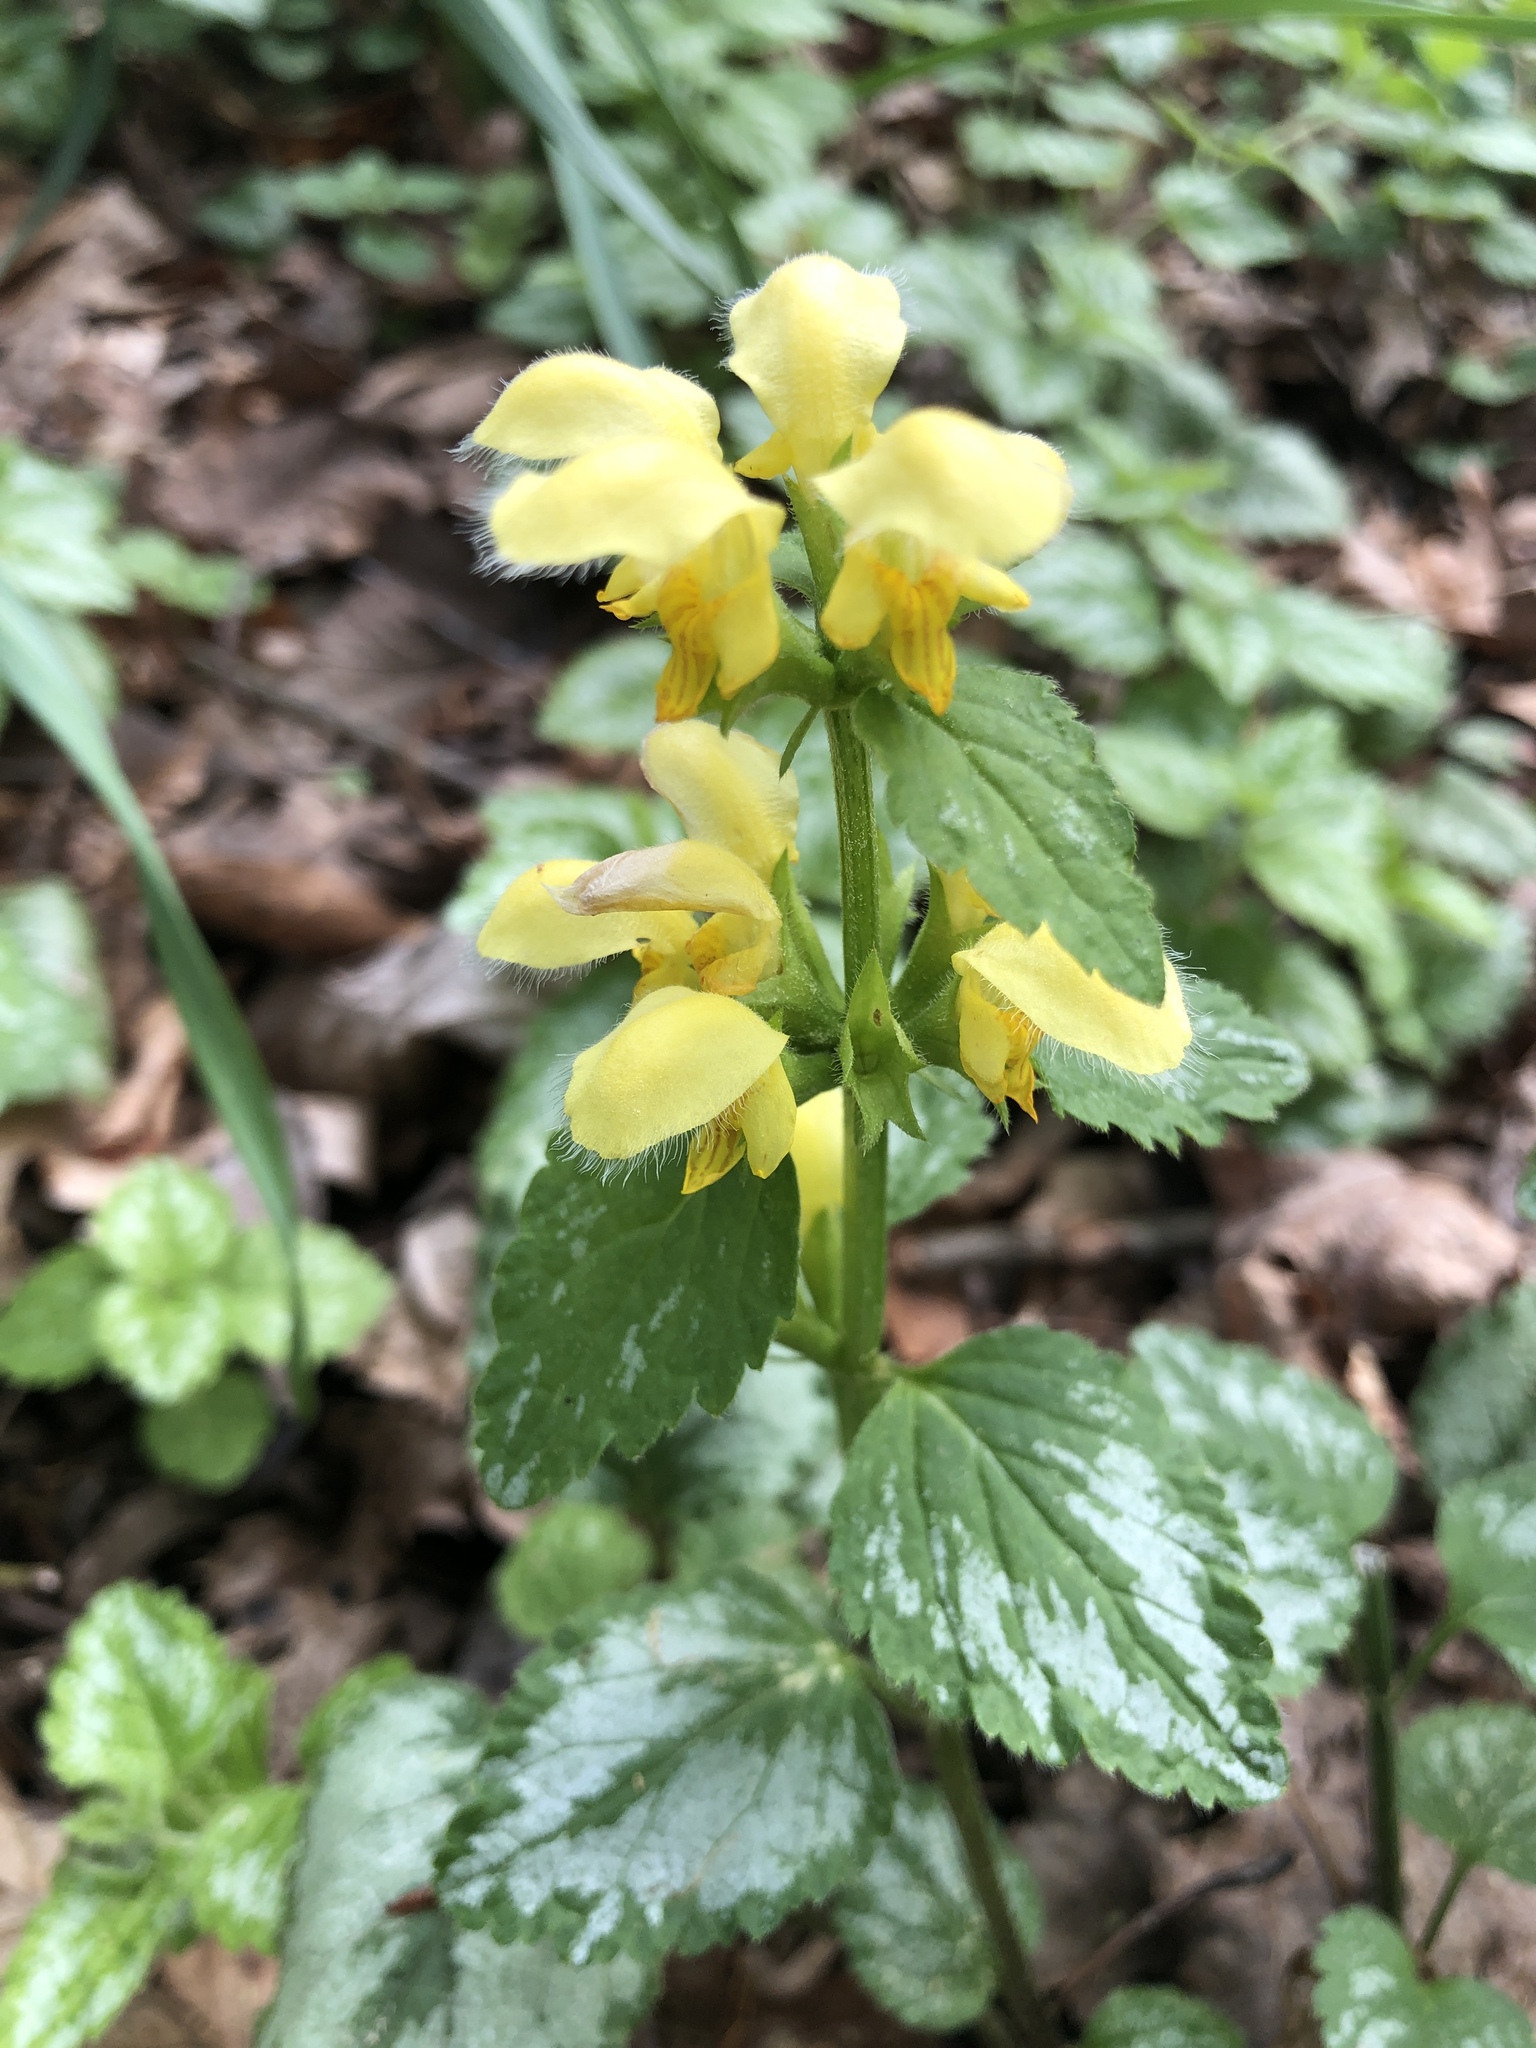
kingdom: Plantae
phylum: Tracheophyta
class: Magnoliopsida
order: Lamiales
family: Lamiaceae
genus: Lamium
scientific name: Lamium galeobdolon
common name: Yellow archangel
